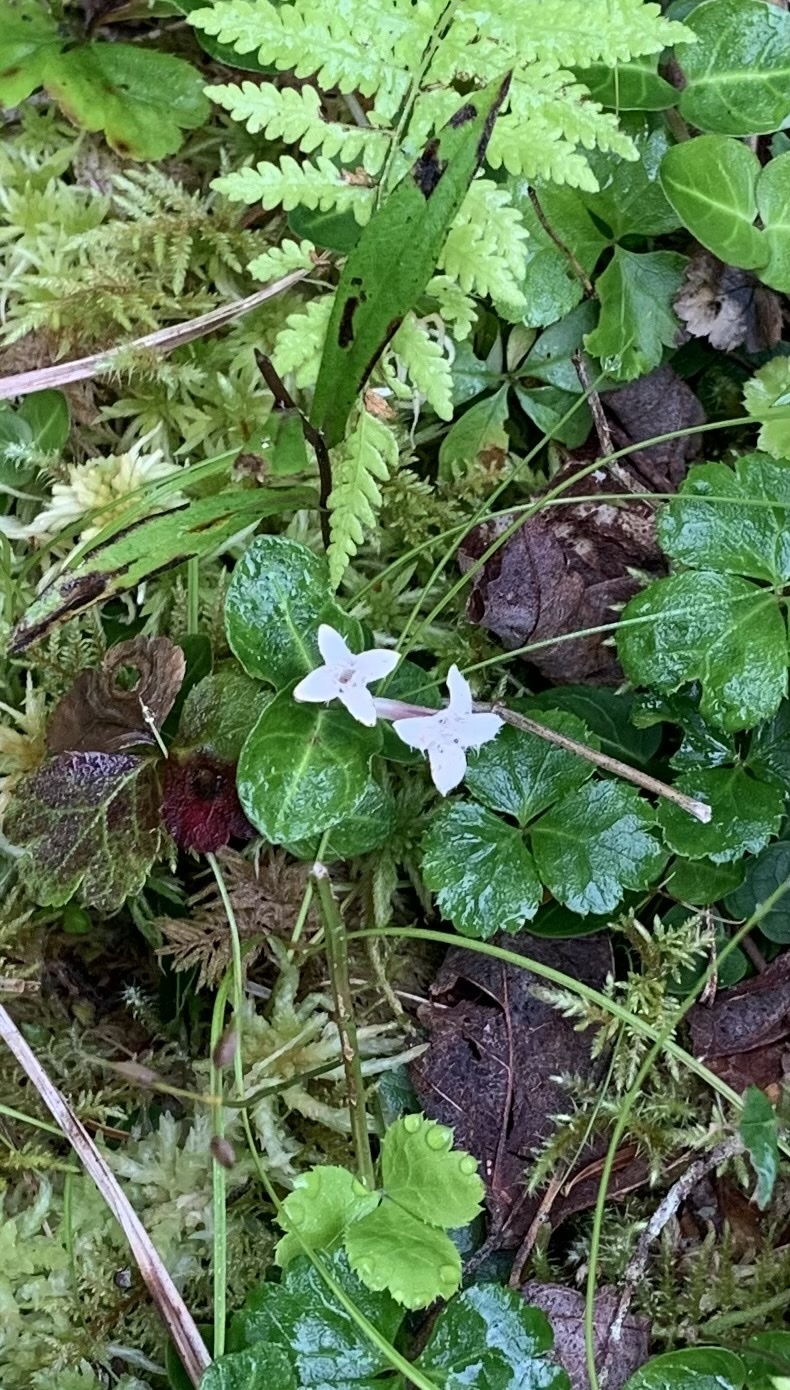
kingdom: Plantae
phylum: Tracheophyta
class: Magnoliopsida
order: Gentianales
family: Rubiaceae
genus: Mitchella
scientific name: Mitchella repens
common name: Partridge-berry
